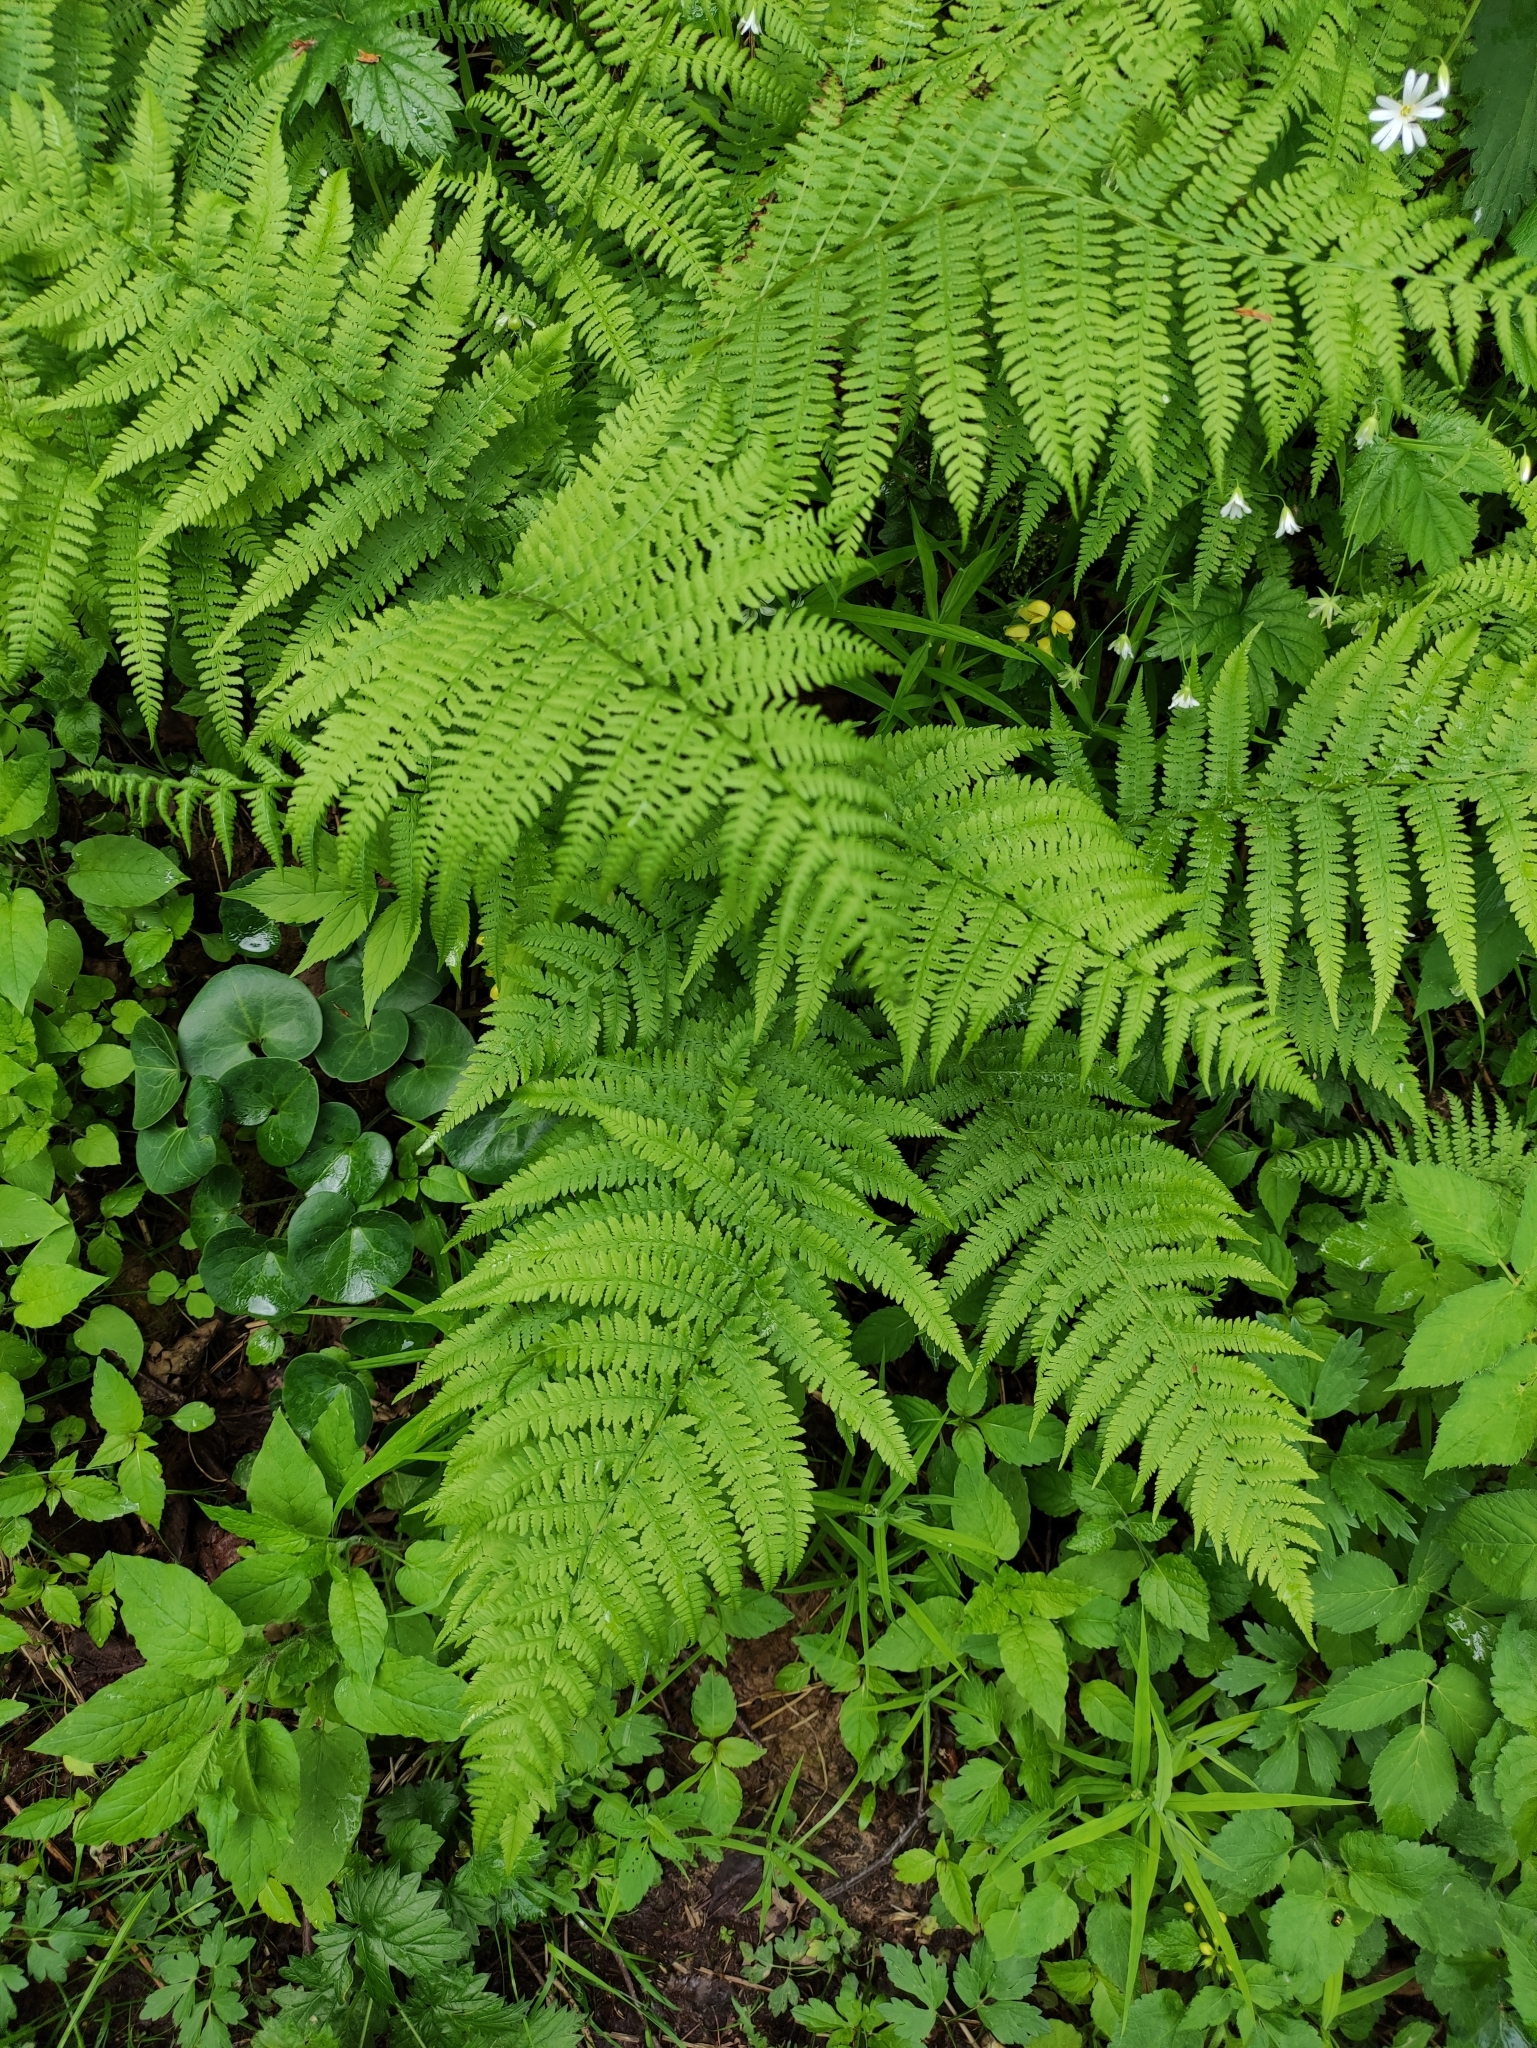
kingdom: Plantae
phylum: Tracheophyta
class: Polypodiopsida
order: Polypodiales
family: Athyriaceae
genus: Athyrium
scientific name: Athyrium filix-femina
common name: Lady fern
